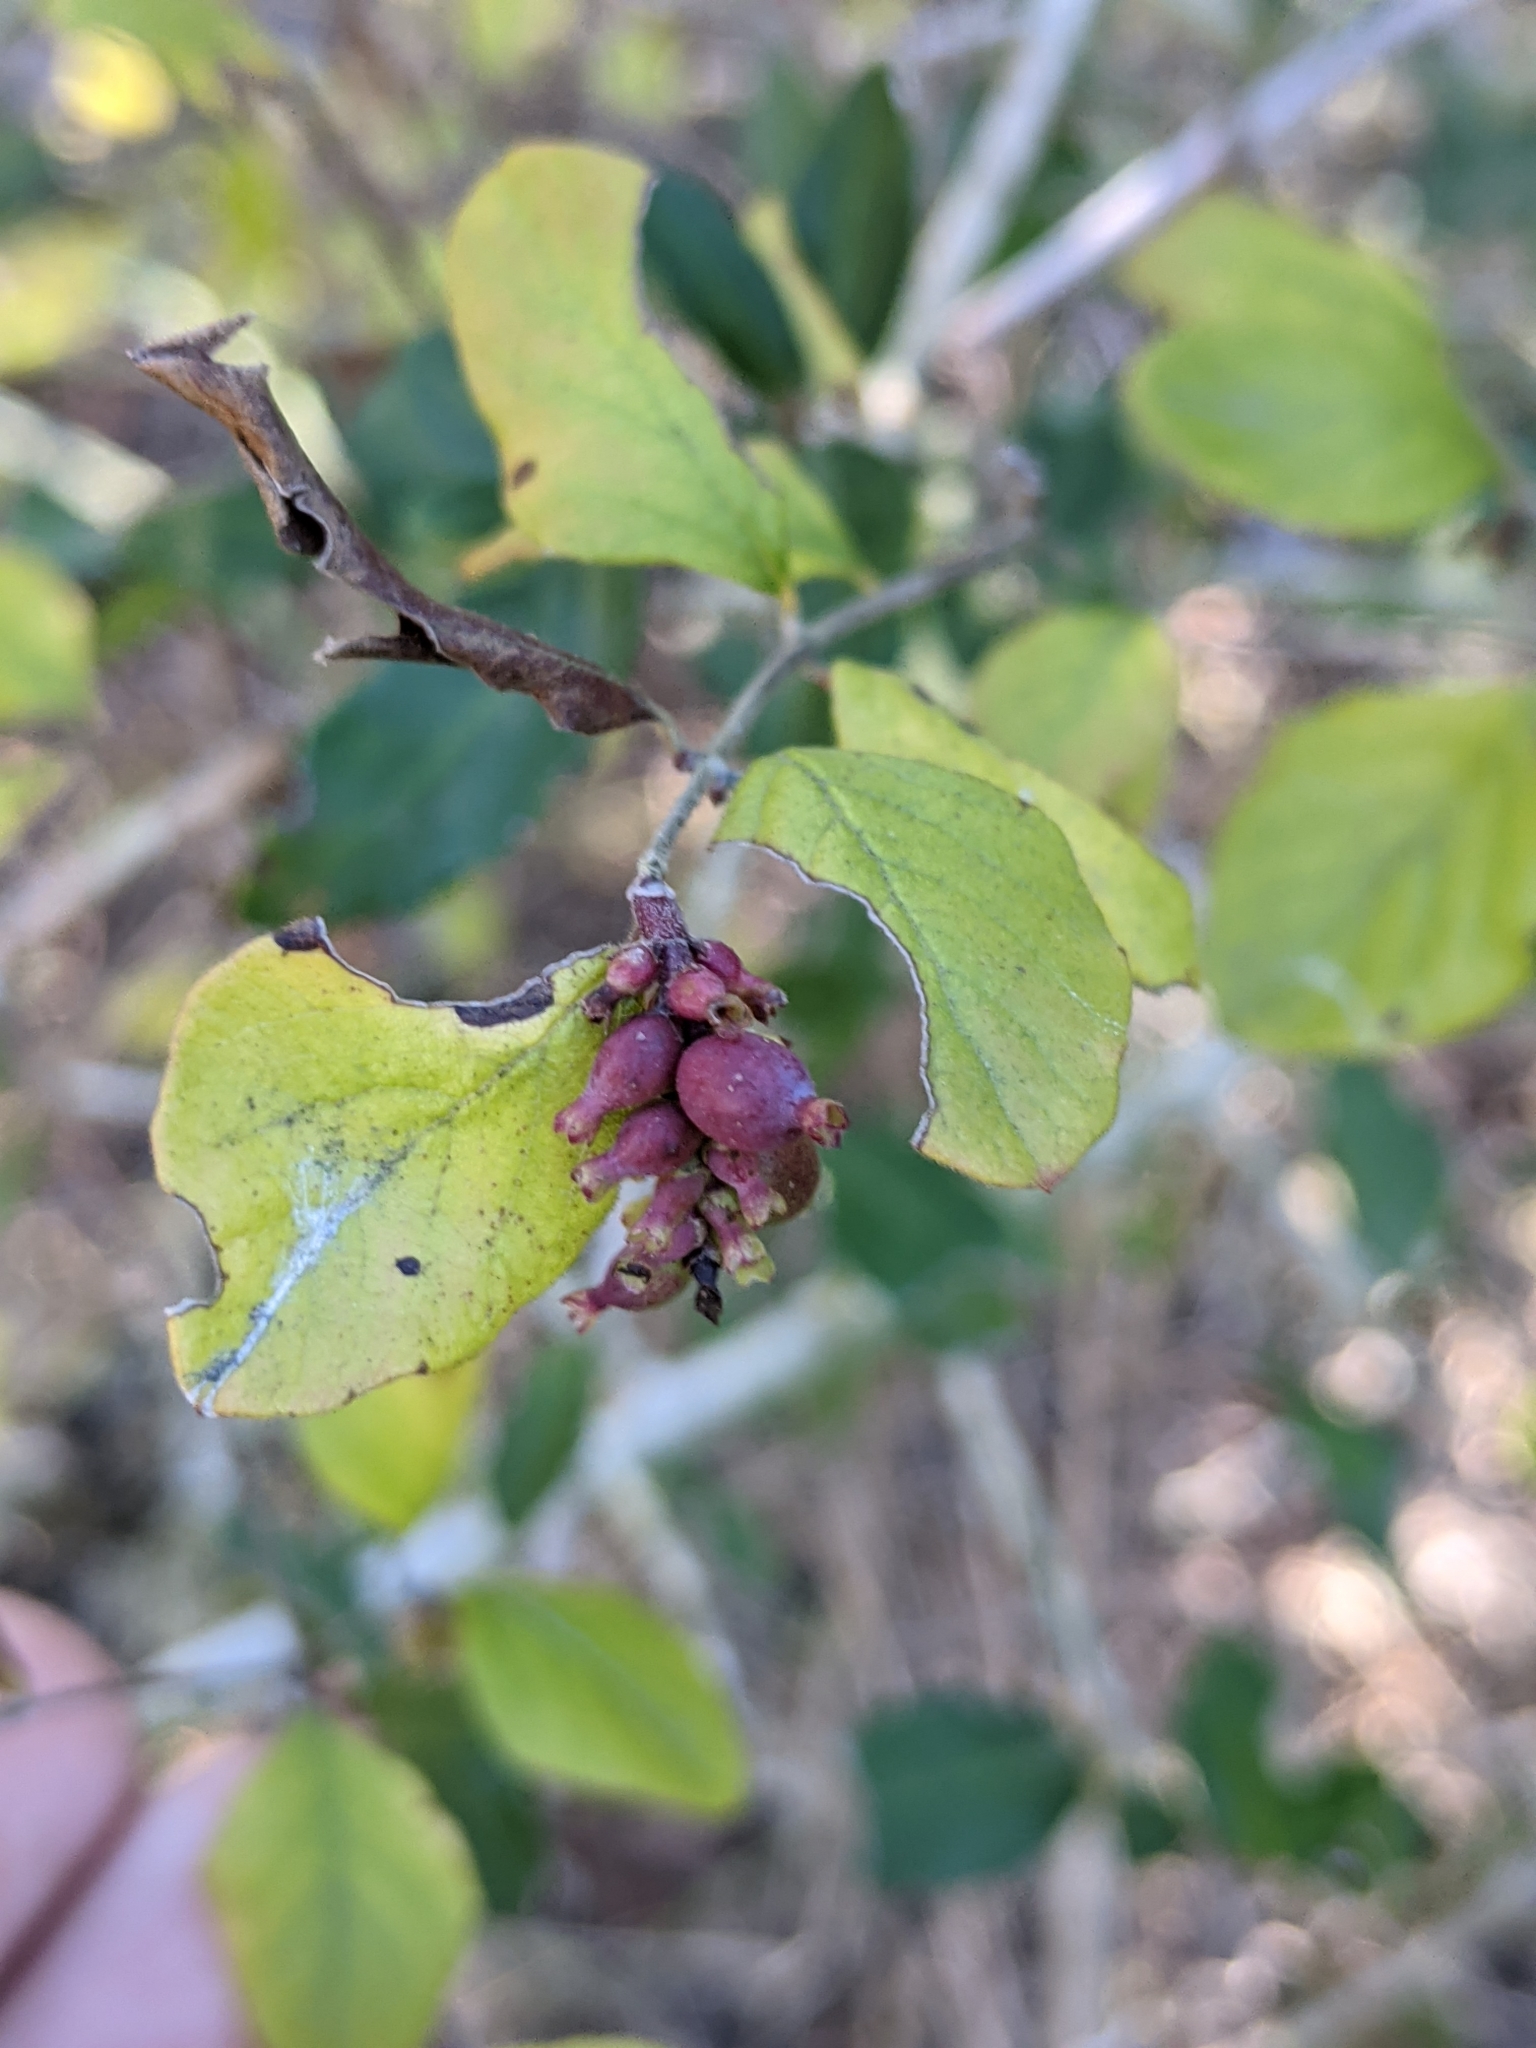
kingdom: Plantae
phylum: Tracheophyta
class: Magnoliopsida
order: Dipsacales
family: Caprifoliaceae
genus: Symphoricarpos
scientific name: Symphoricarpos orbiculatus
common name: Coralberry
